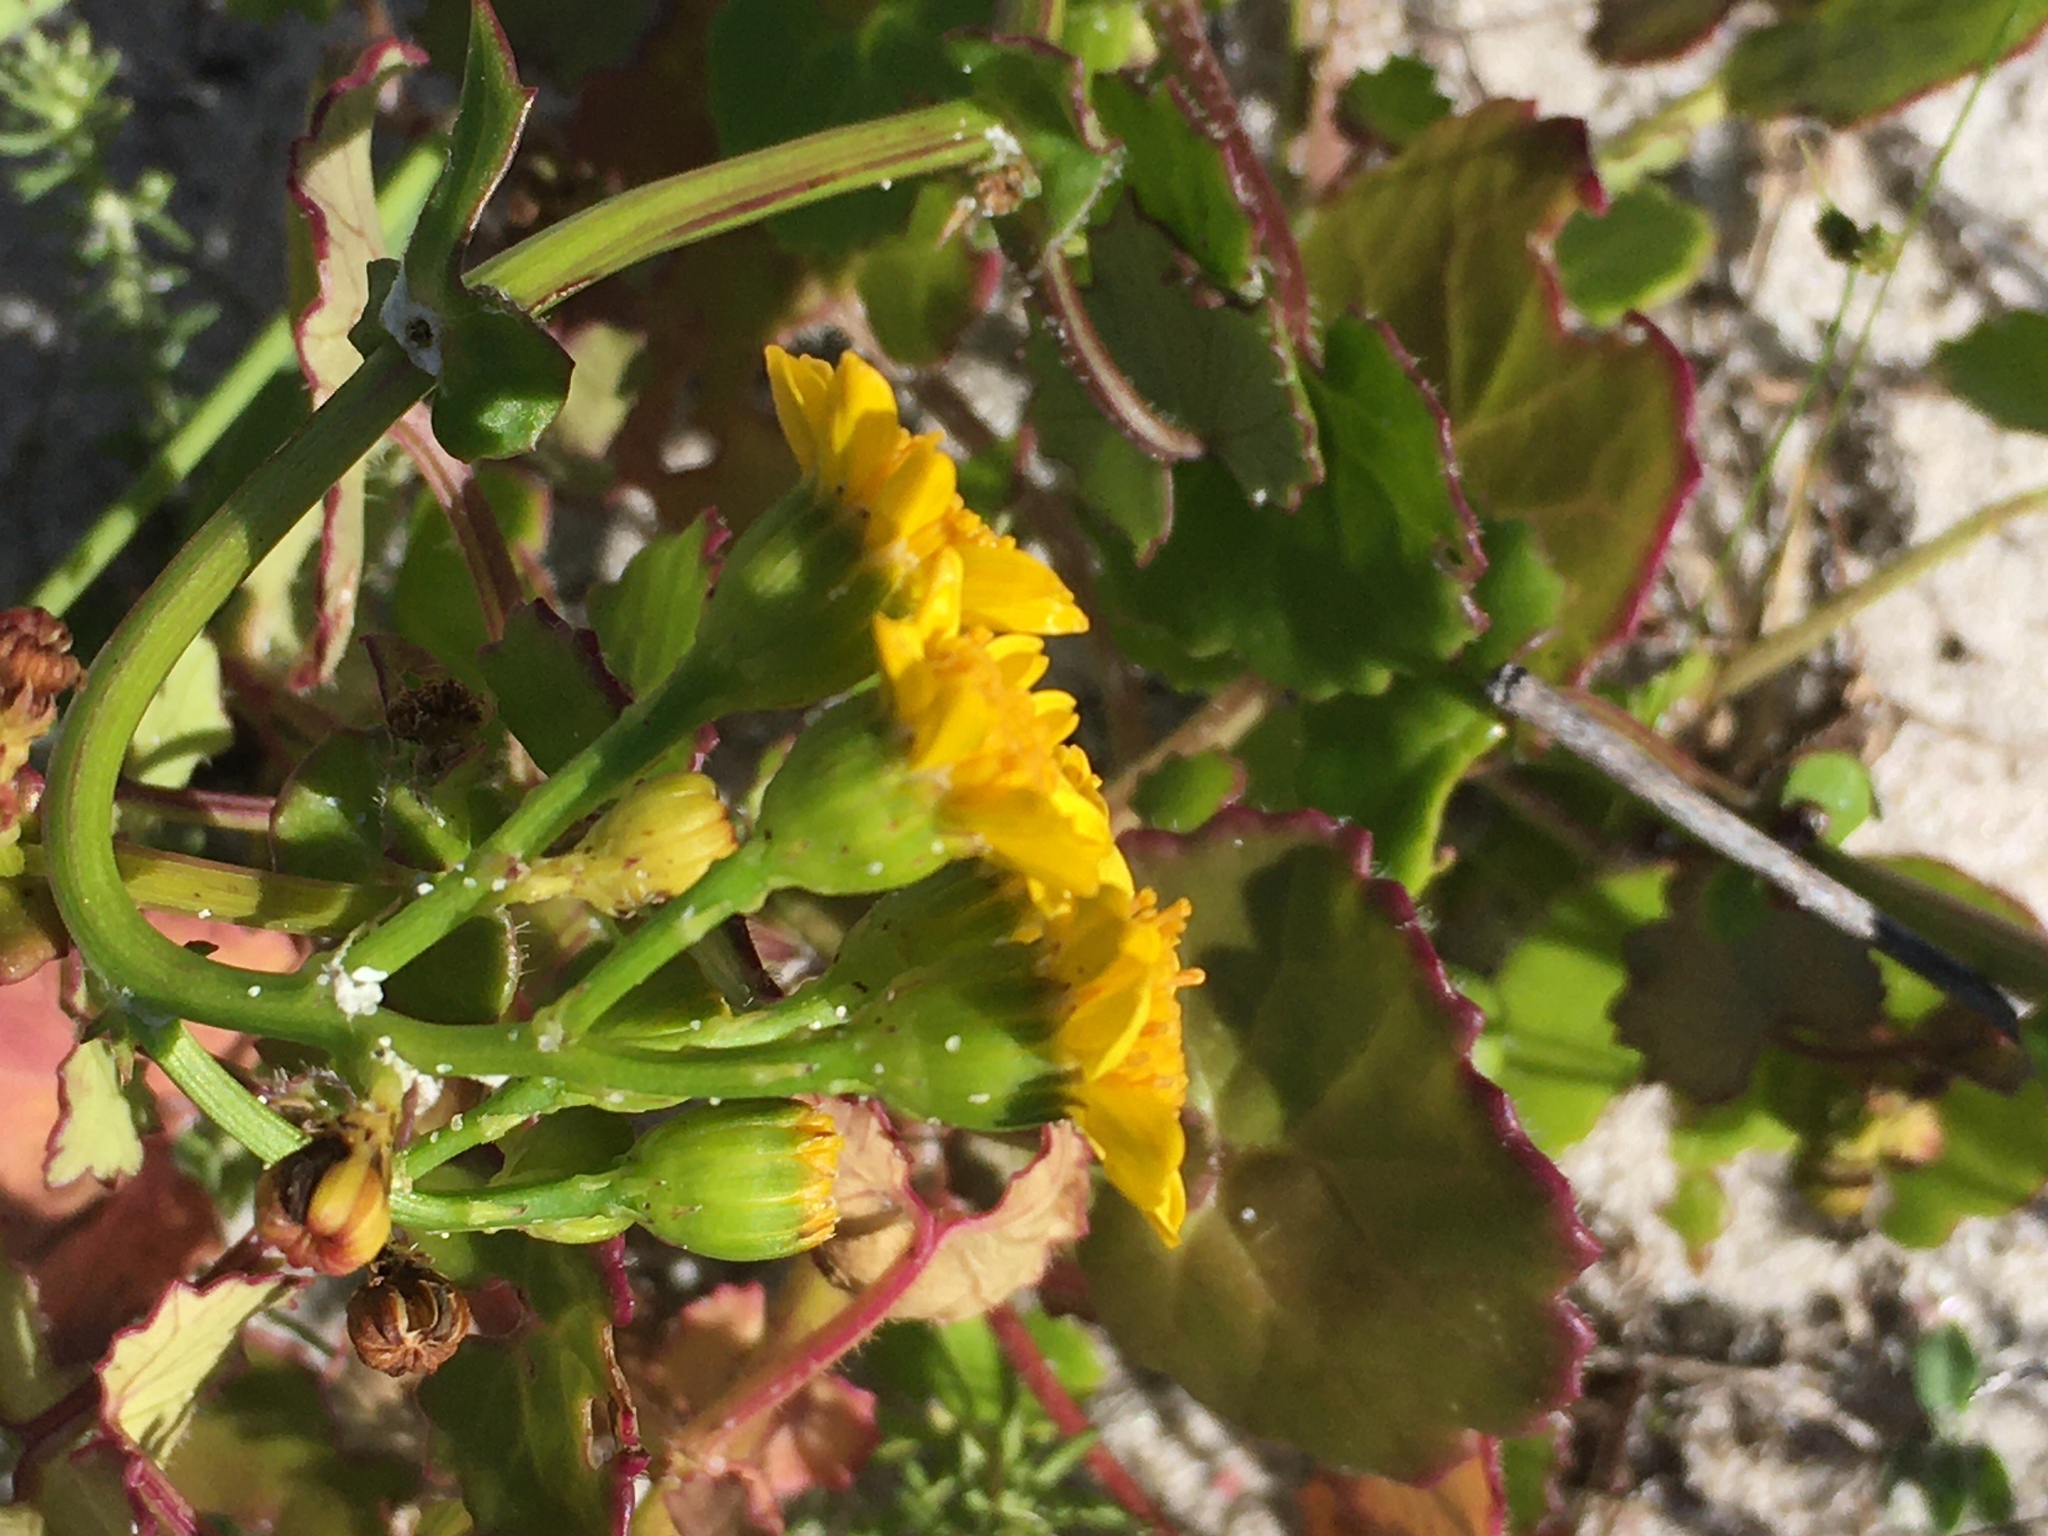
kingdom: Plantae
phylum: Tracheophyta
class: Magnoliopsida
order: Asterales
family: Asteraceae
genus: Cineraria
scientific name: Cineraria geifolia
